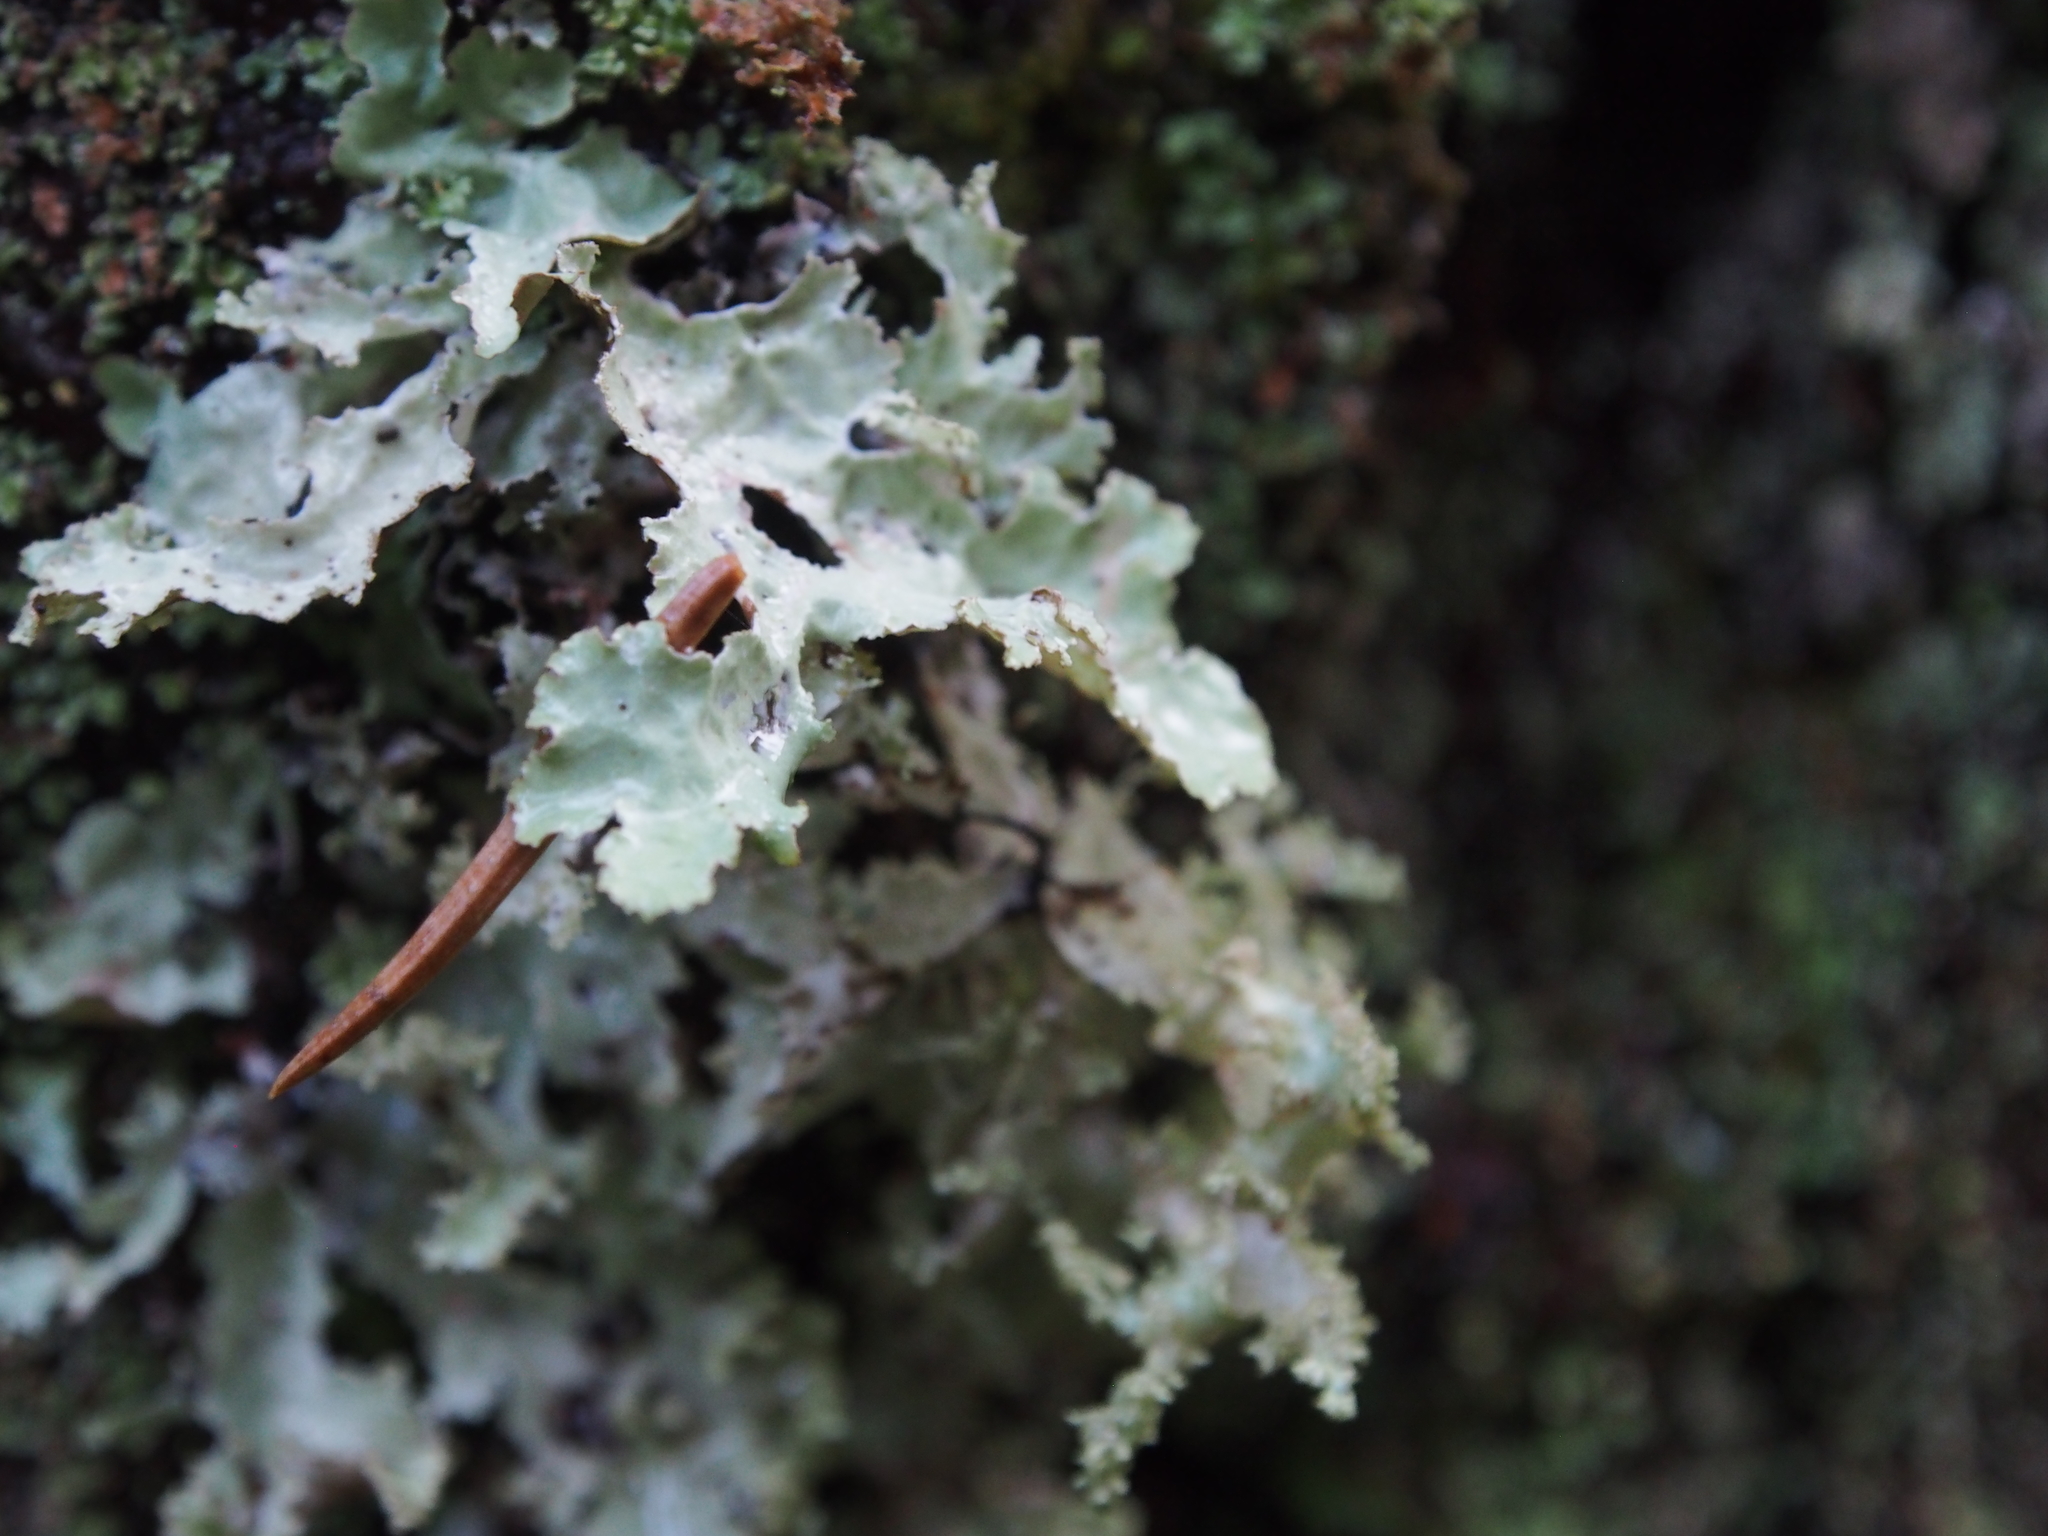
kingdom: Fungi
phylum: Ascomycota
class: Lecanoromycetes
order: Lecanorales
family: Parmeliaceae
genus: Platismatia
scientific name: Platismatia glauca
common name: Varied rag lichen
